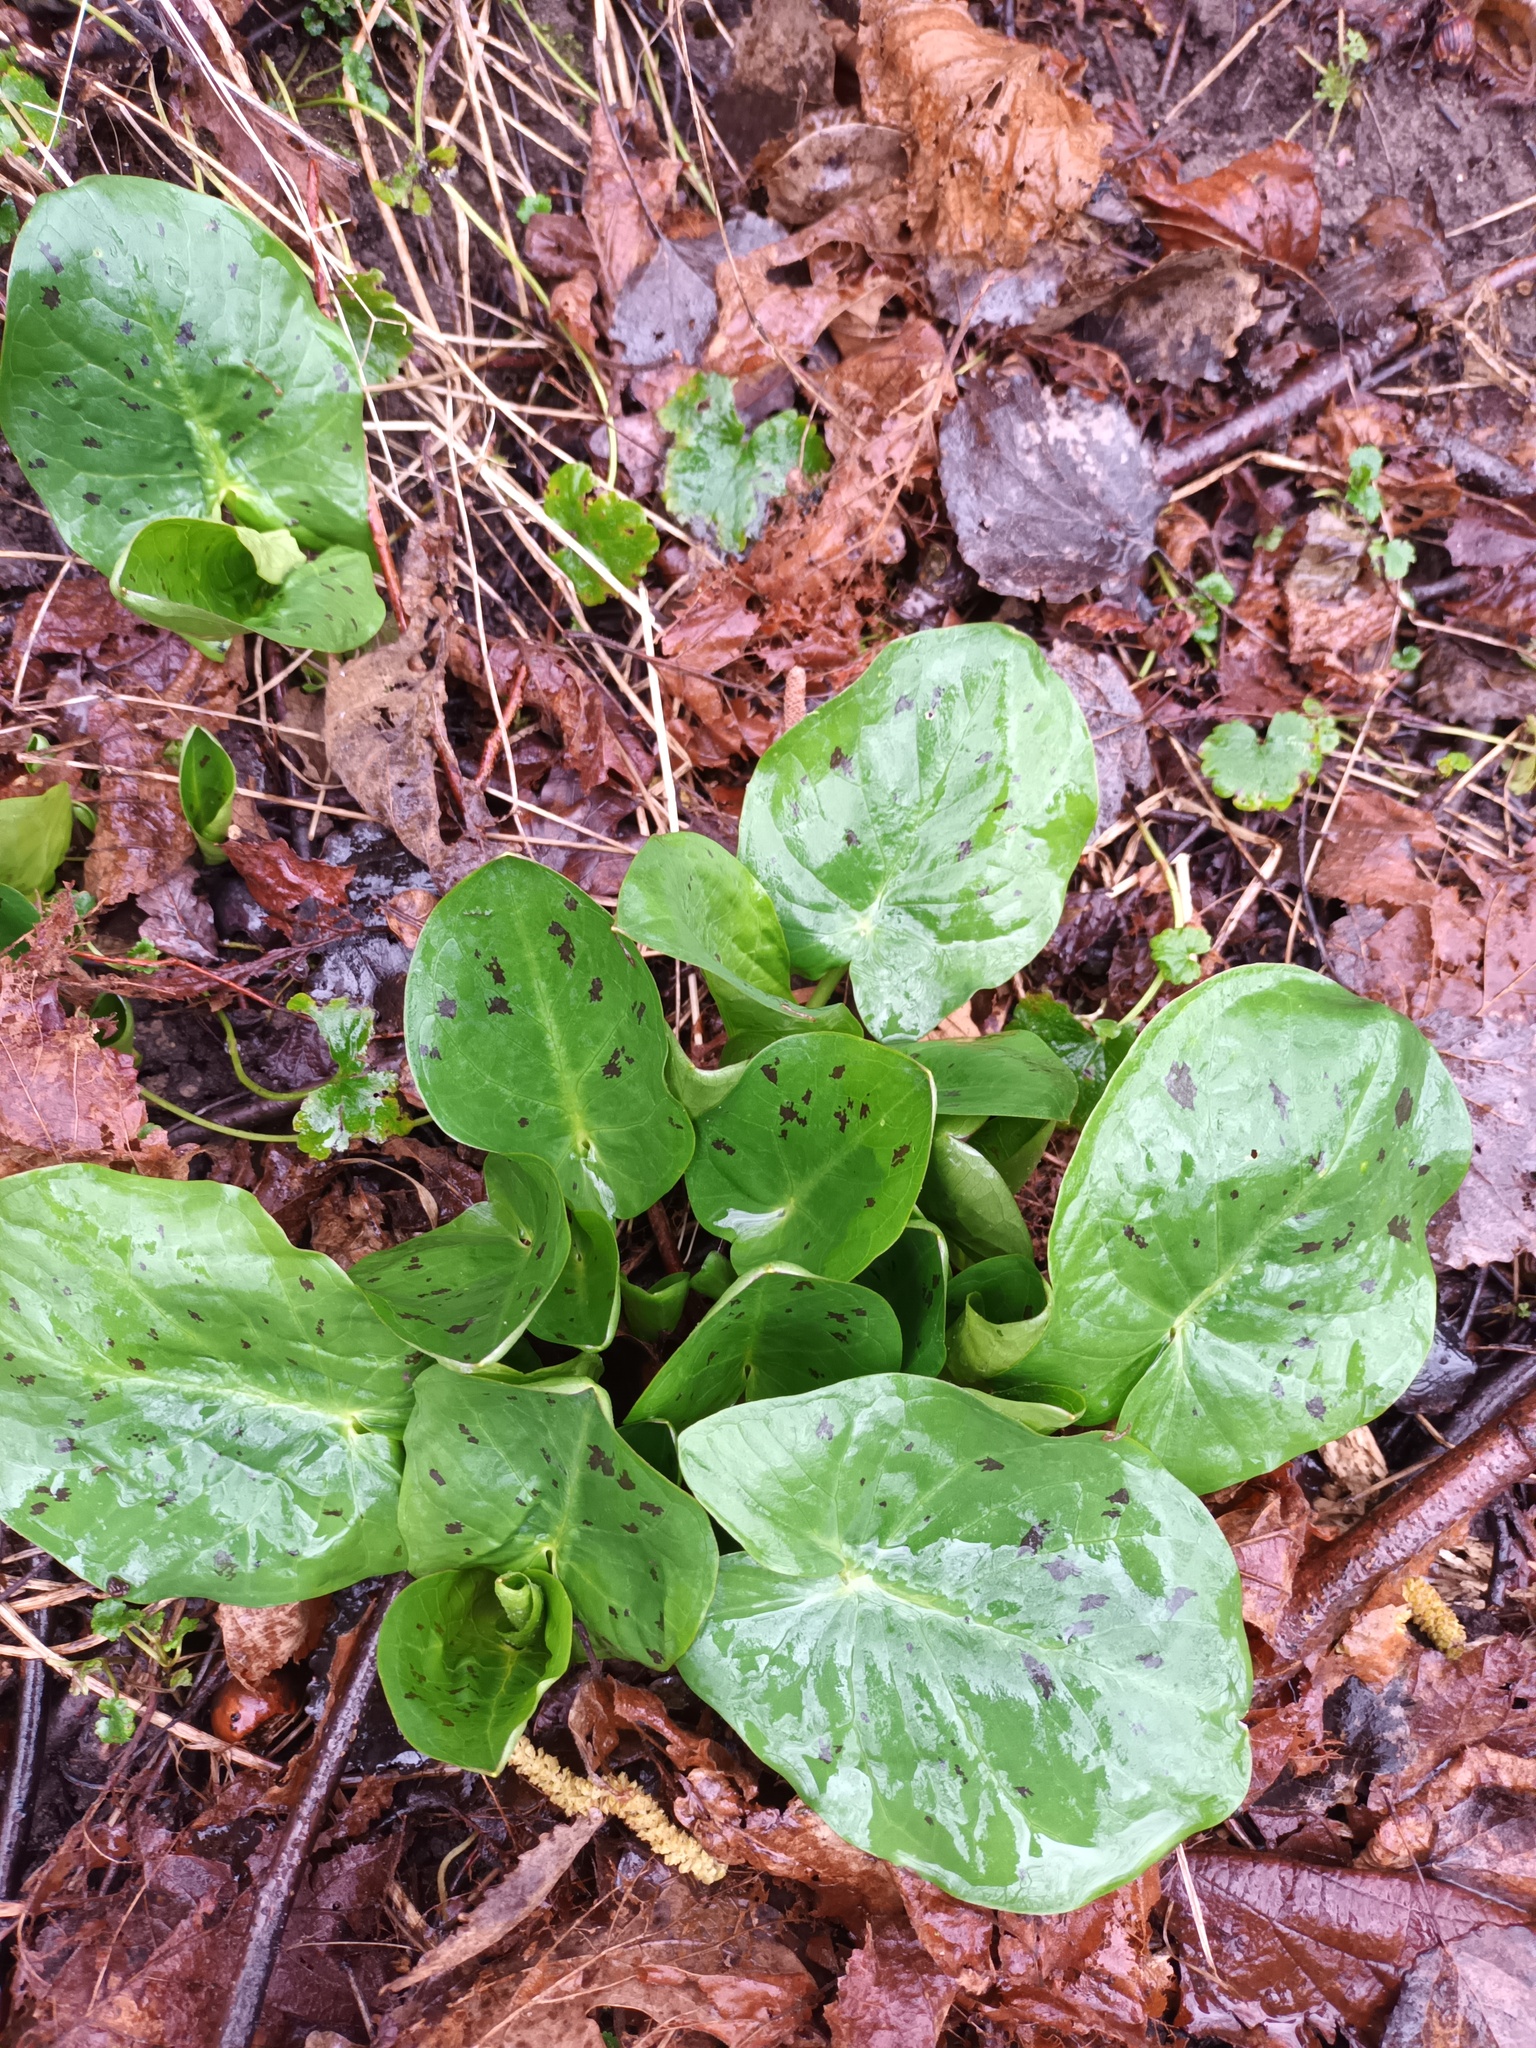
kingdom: Plantae
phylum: Tracheophyta
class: Liliopsida
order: Alismatales
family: Araceae
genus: Arum
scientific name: Arum maculatum
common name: Lords-and-ladies
